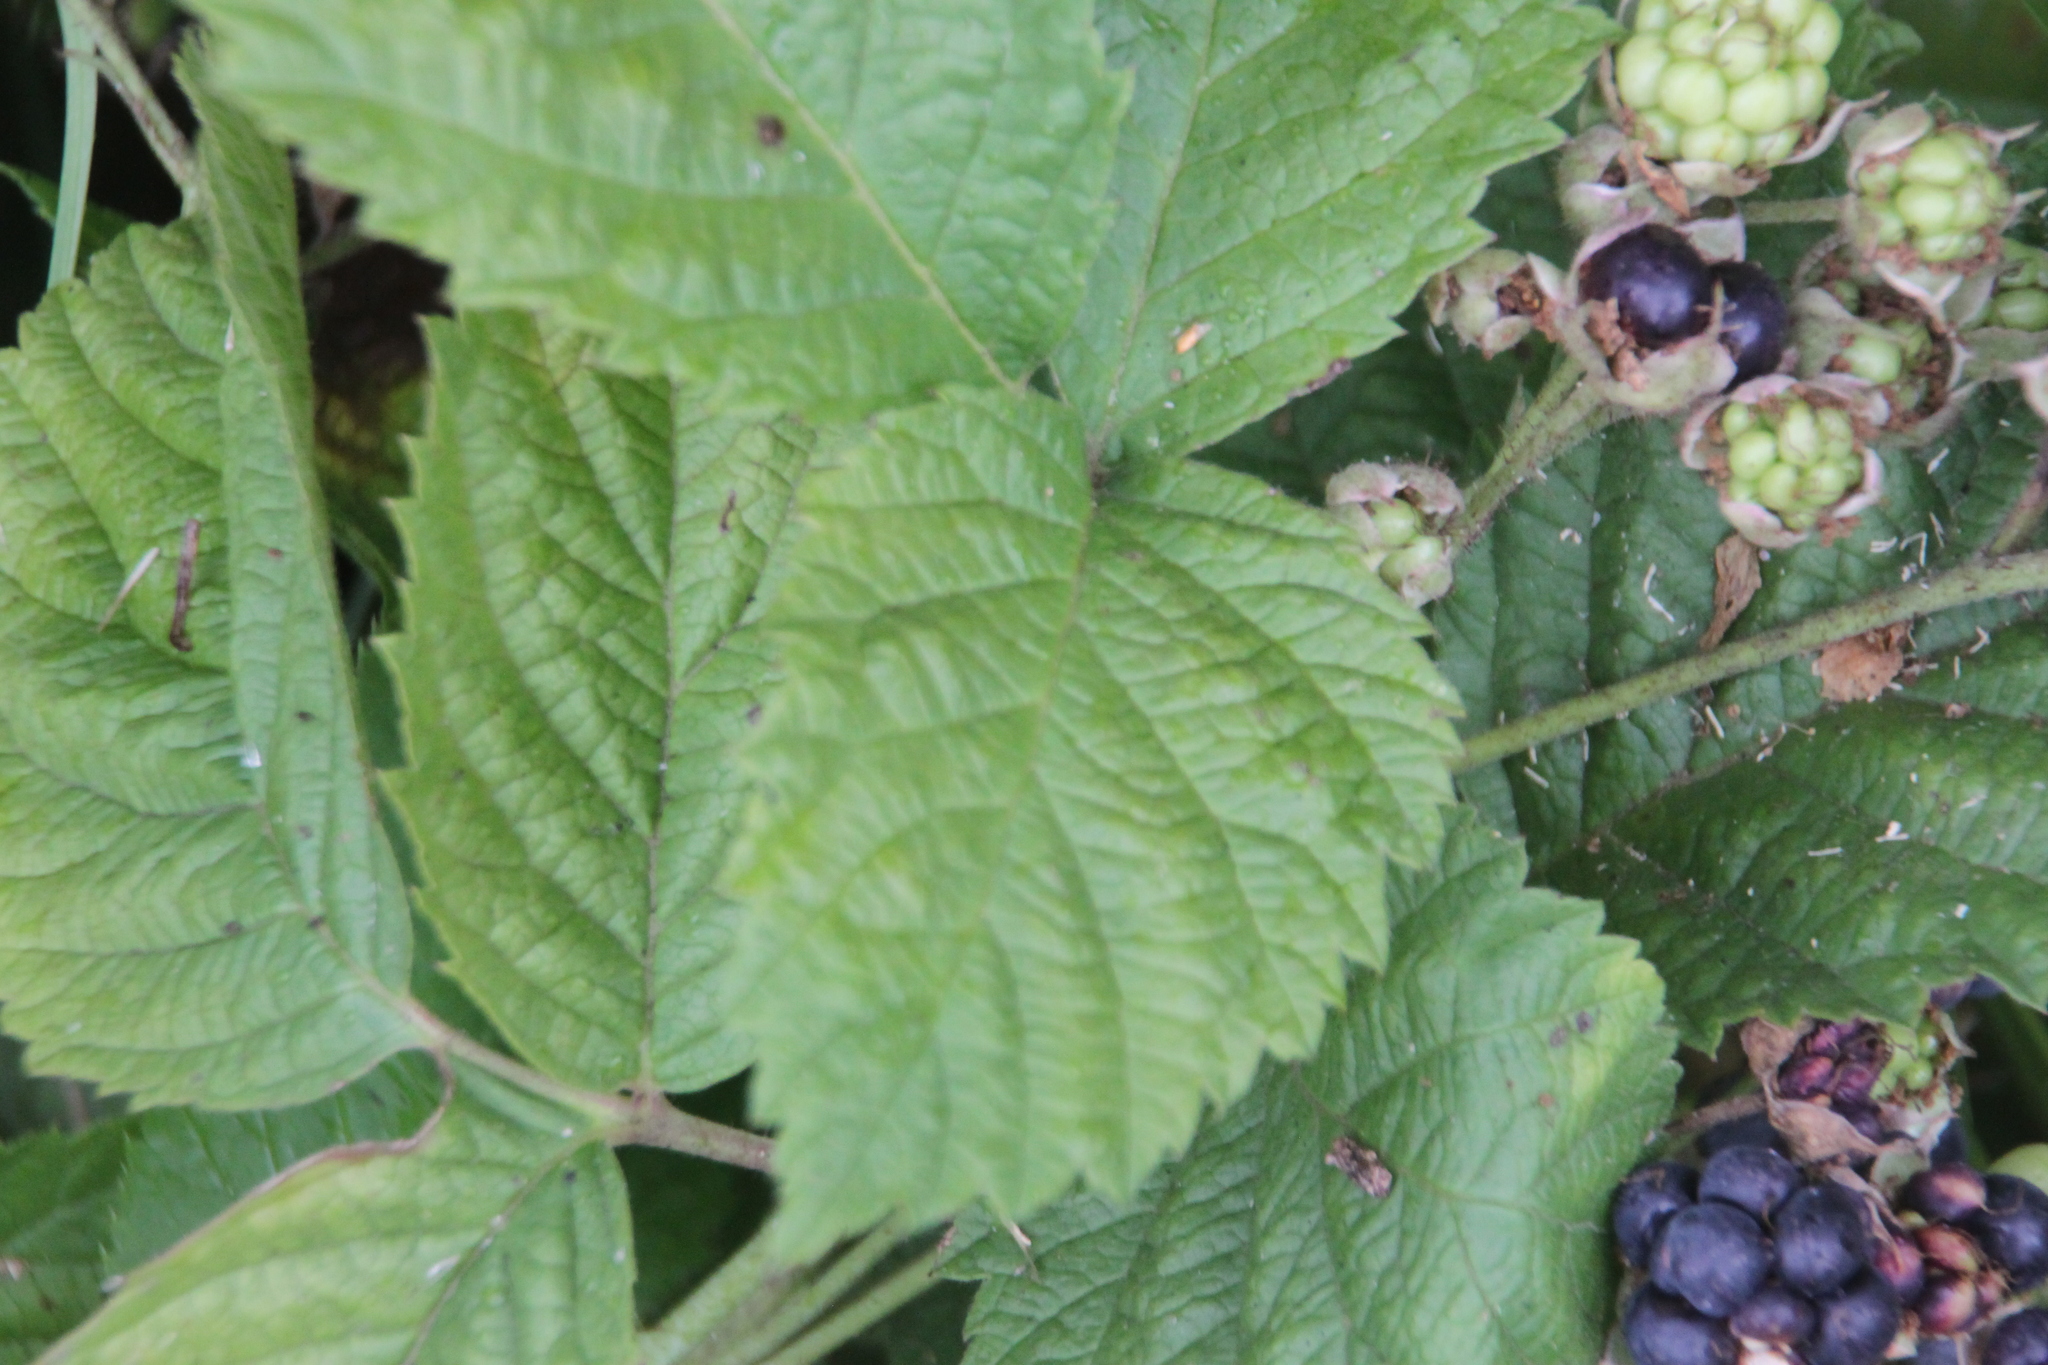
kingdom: Plantae
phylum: Tracheophyta
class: Magnoliopsida
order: Rosales
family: Rosaceae
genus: Rubus
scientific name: Rubus caesius
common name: Dewberry
